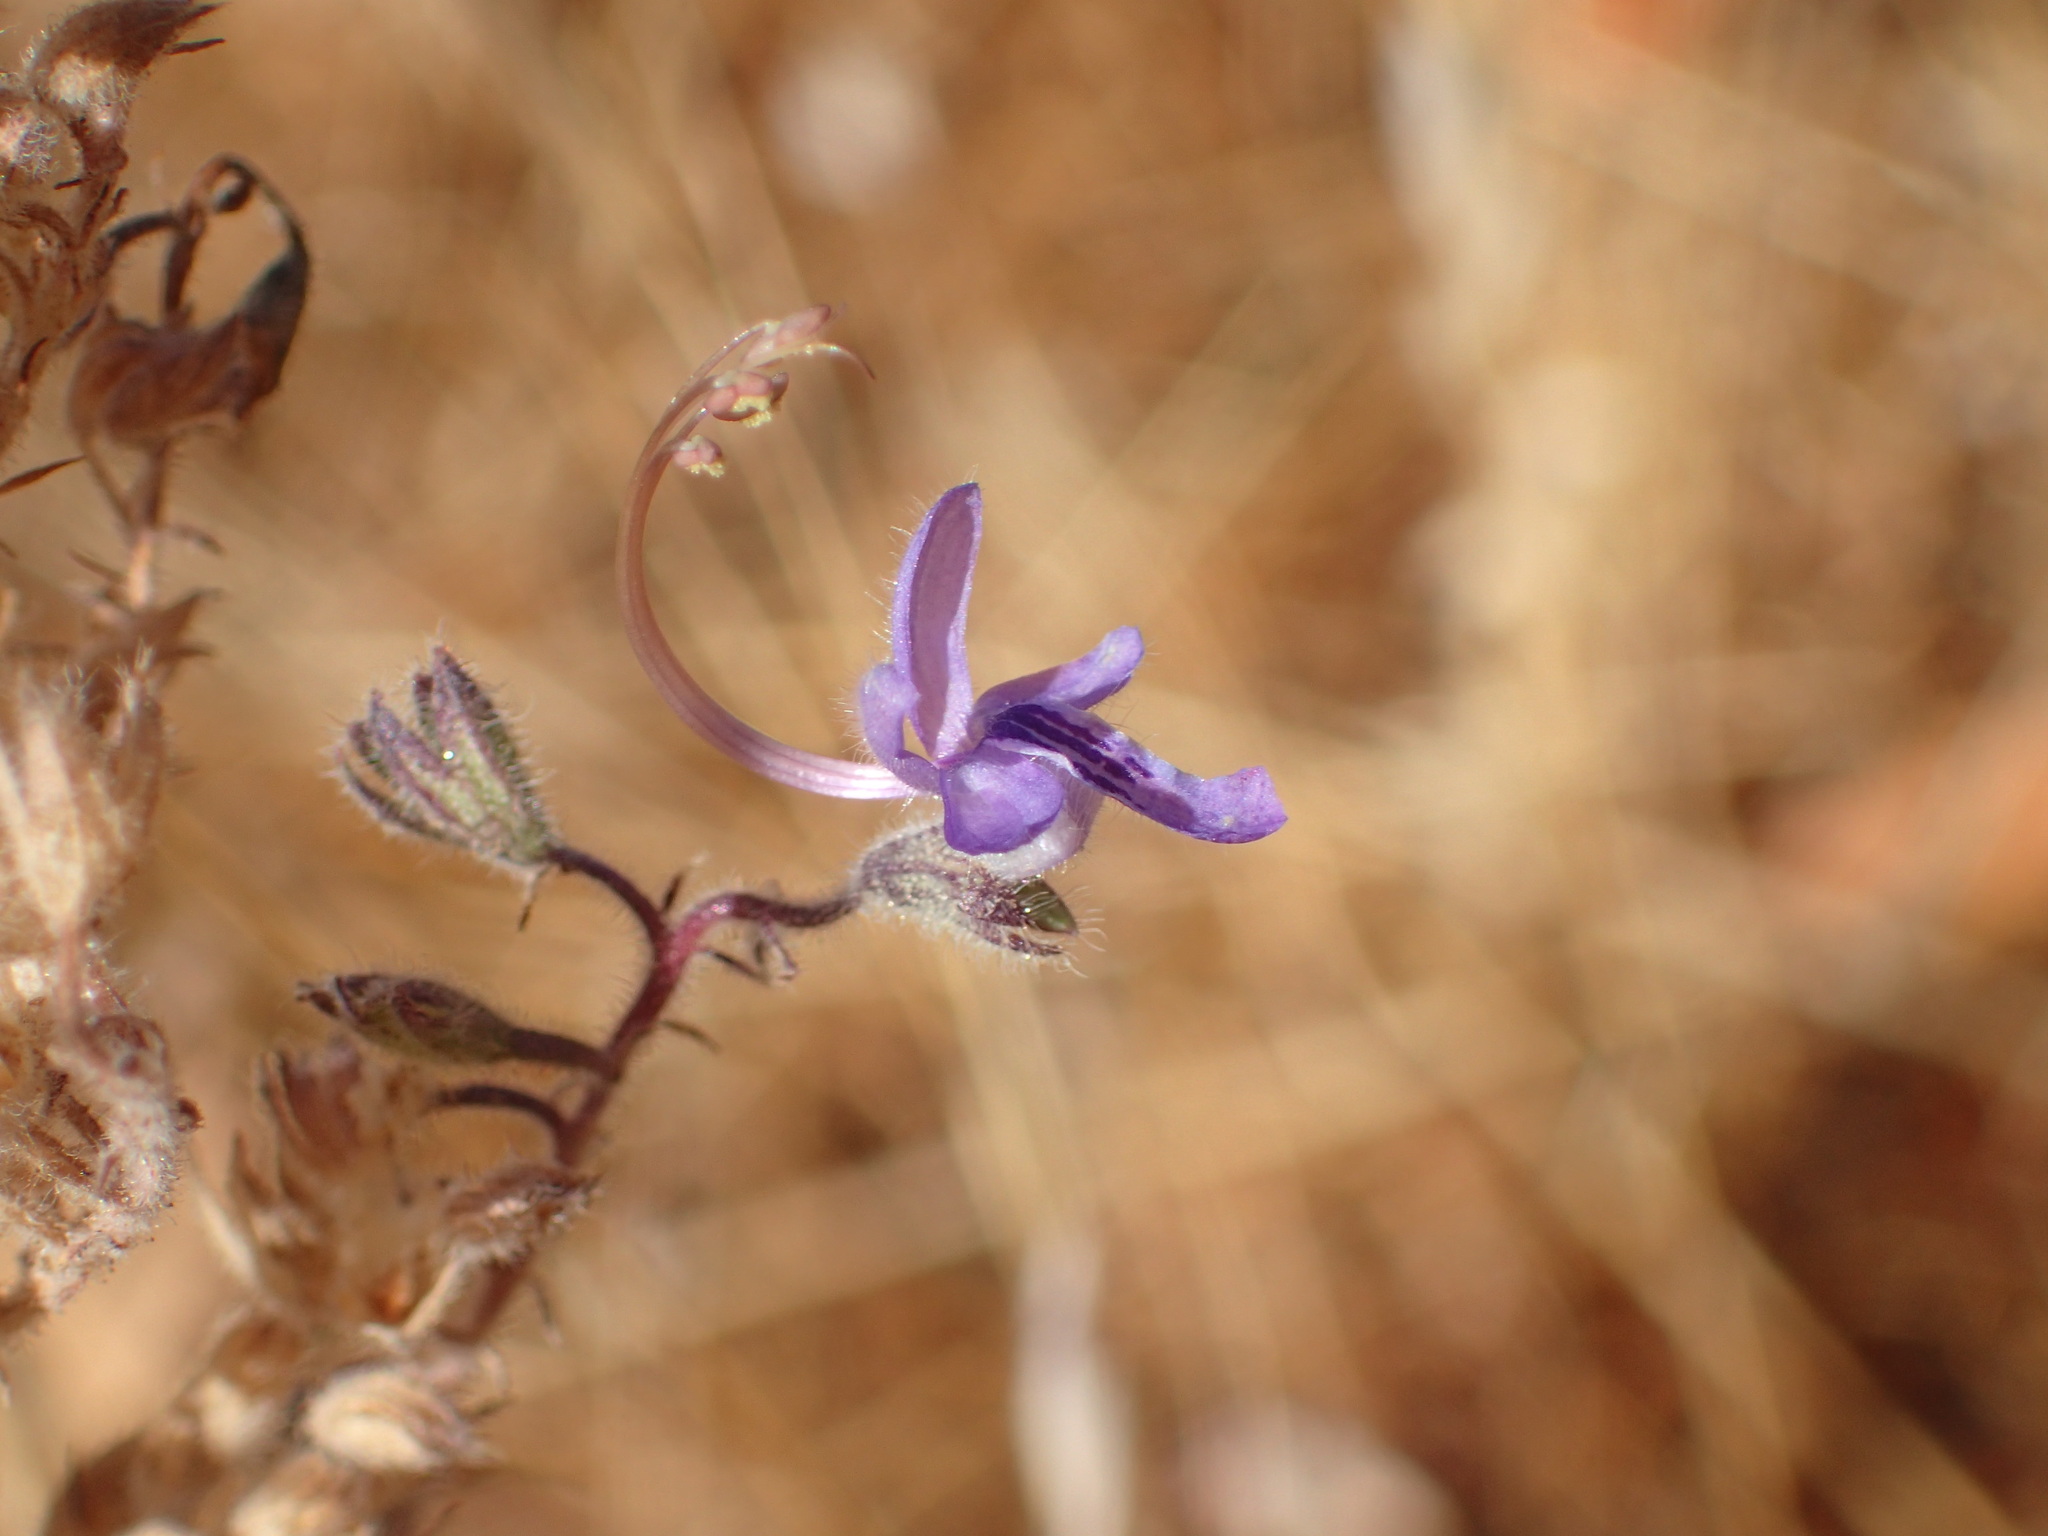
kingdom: Plantae
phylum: Tracheophyta
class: Magnoliopsida
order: Lamiales
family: Lamiaceae
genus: Trichostema
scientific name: Trichostema lanceolatum
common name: Vinegar-weed
